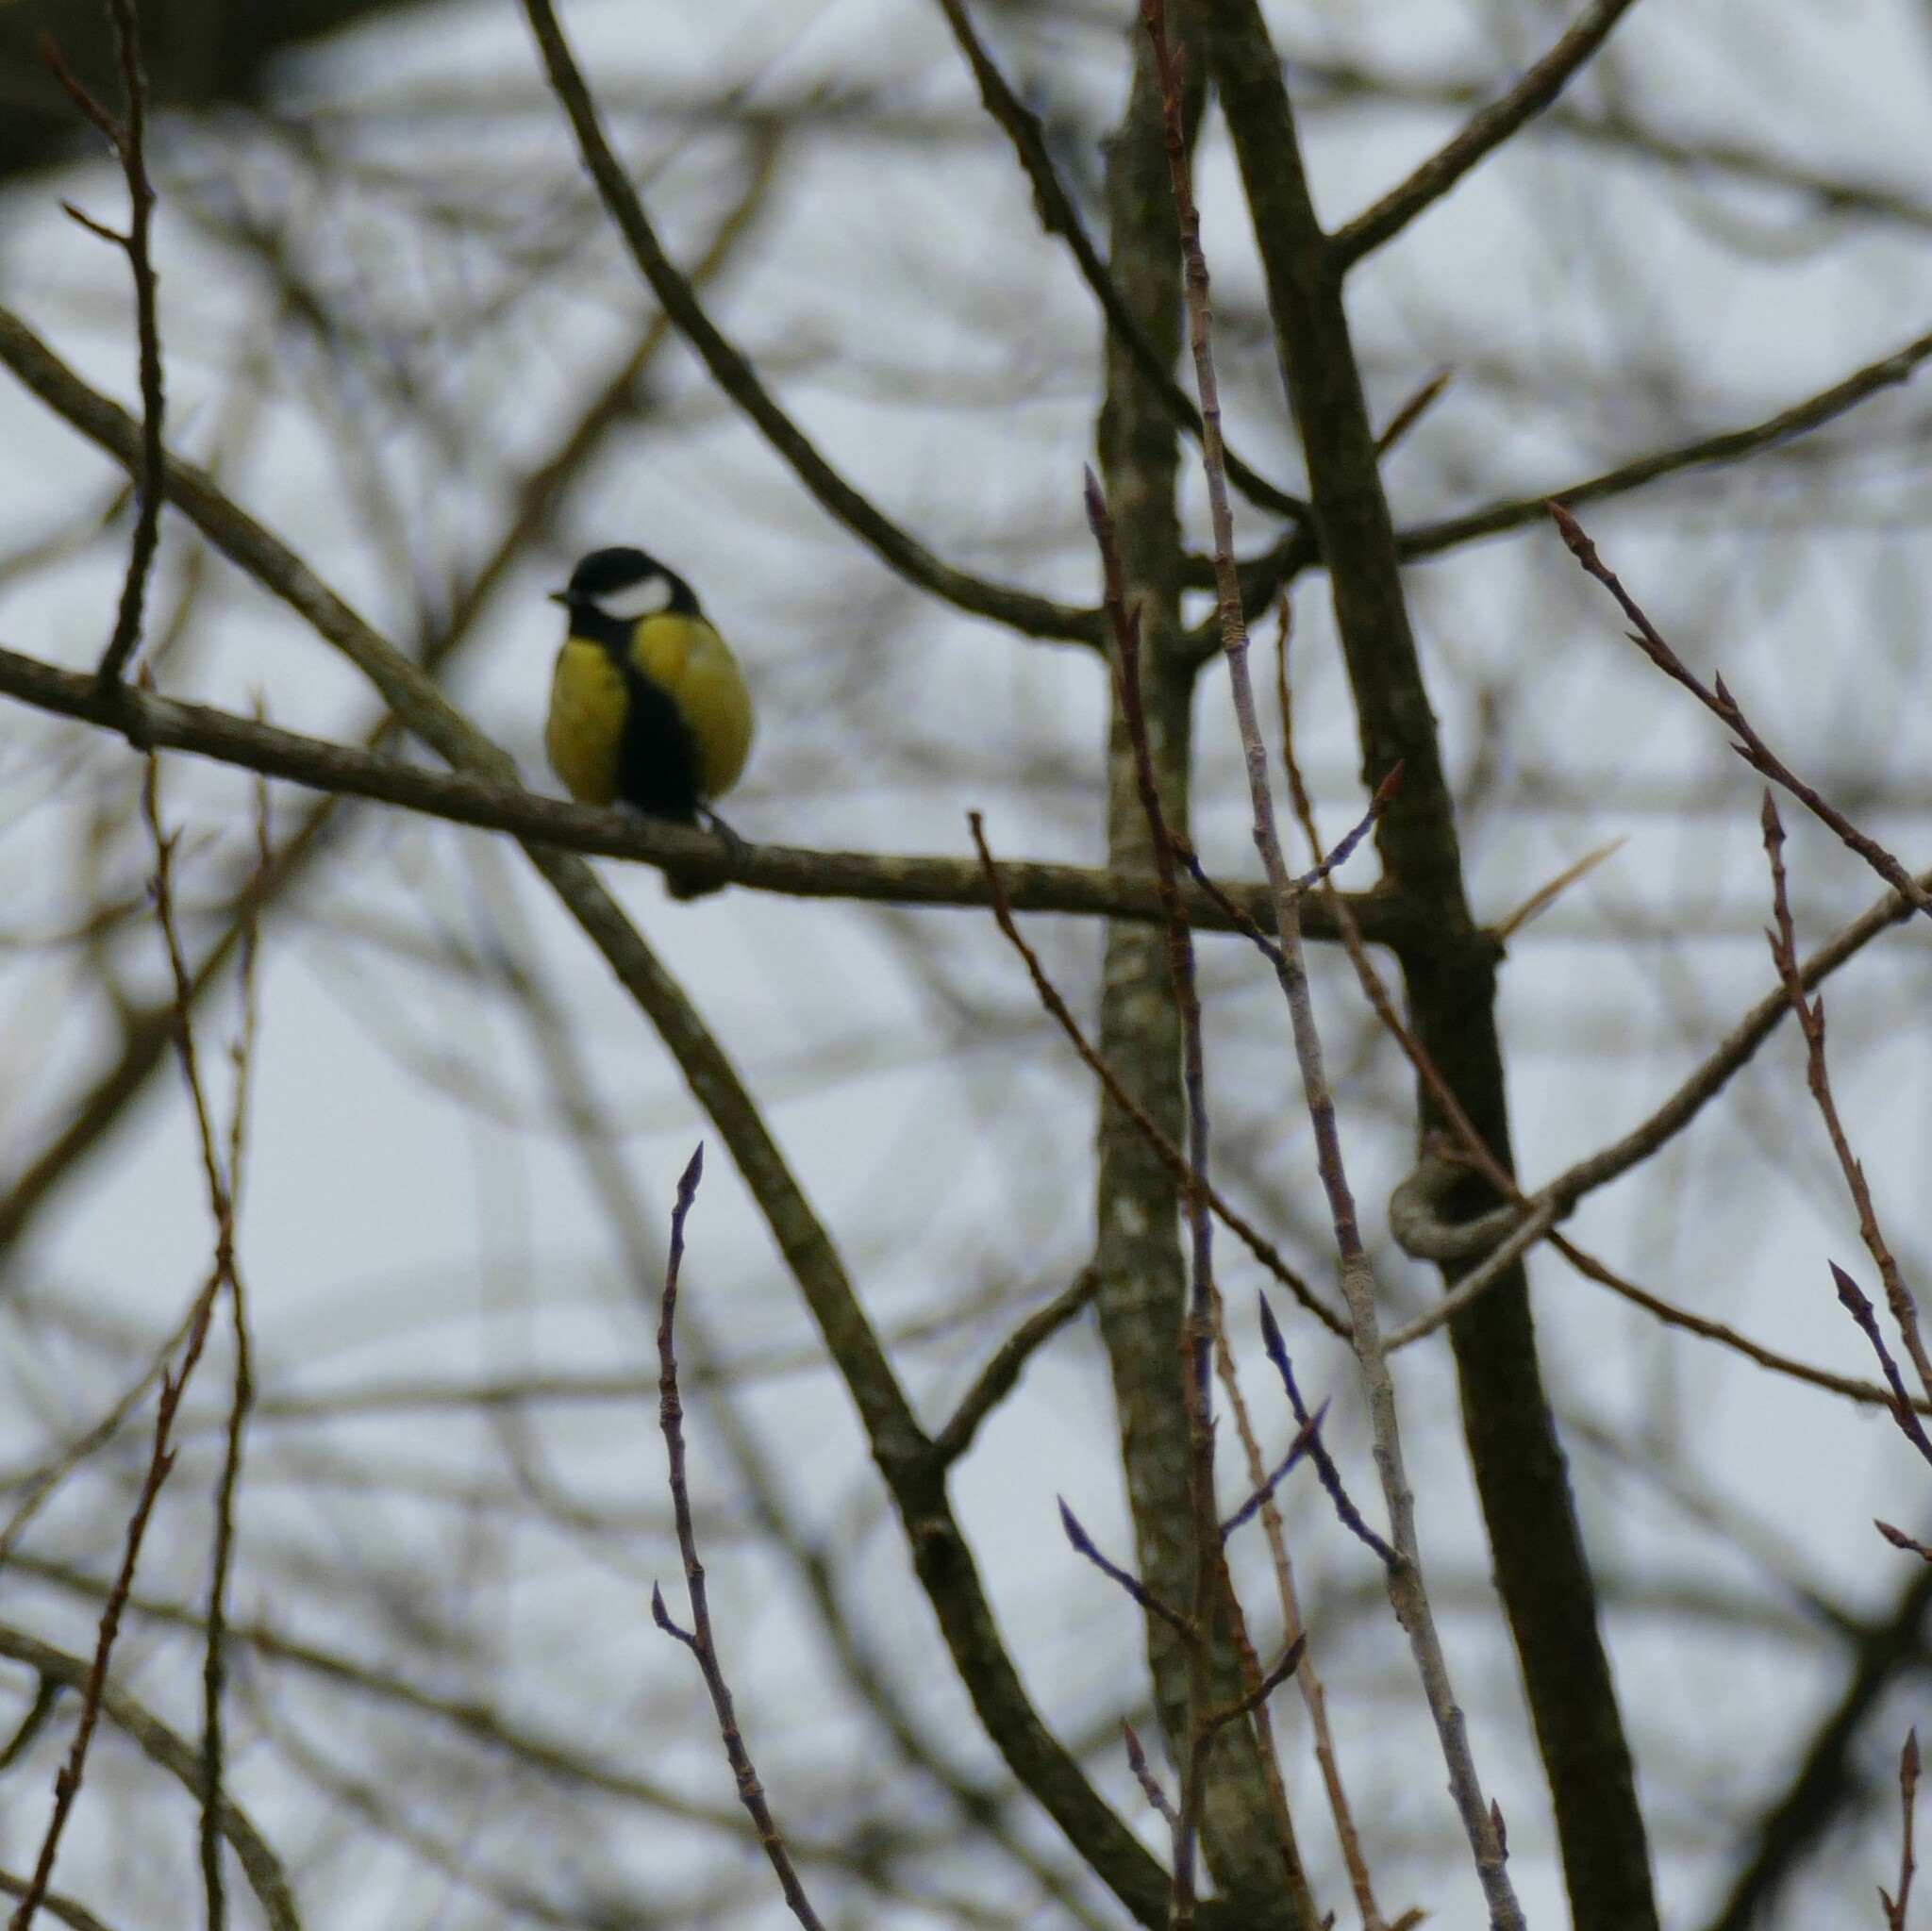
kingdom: Animalia
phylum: Chordata
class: Aves
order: Passeriformes
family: Paridae
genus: Parus
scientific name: Parus major
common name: Great tit
